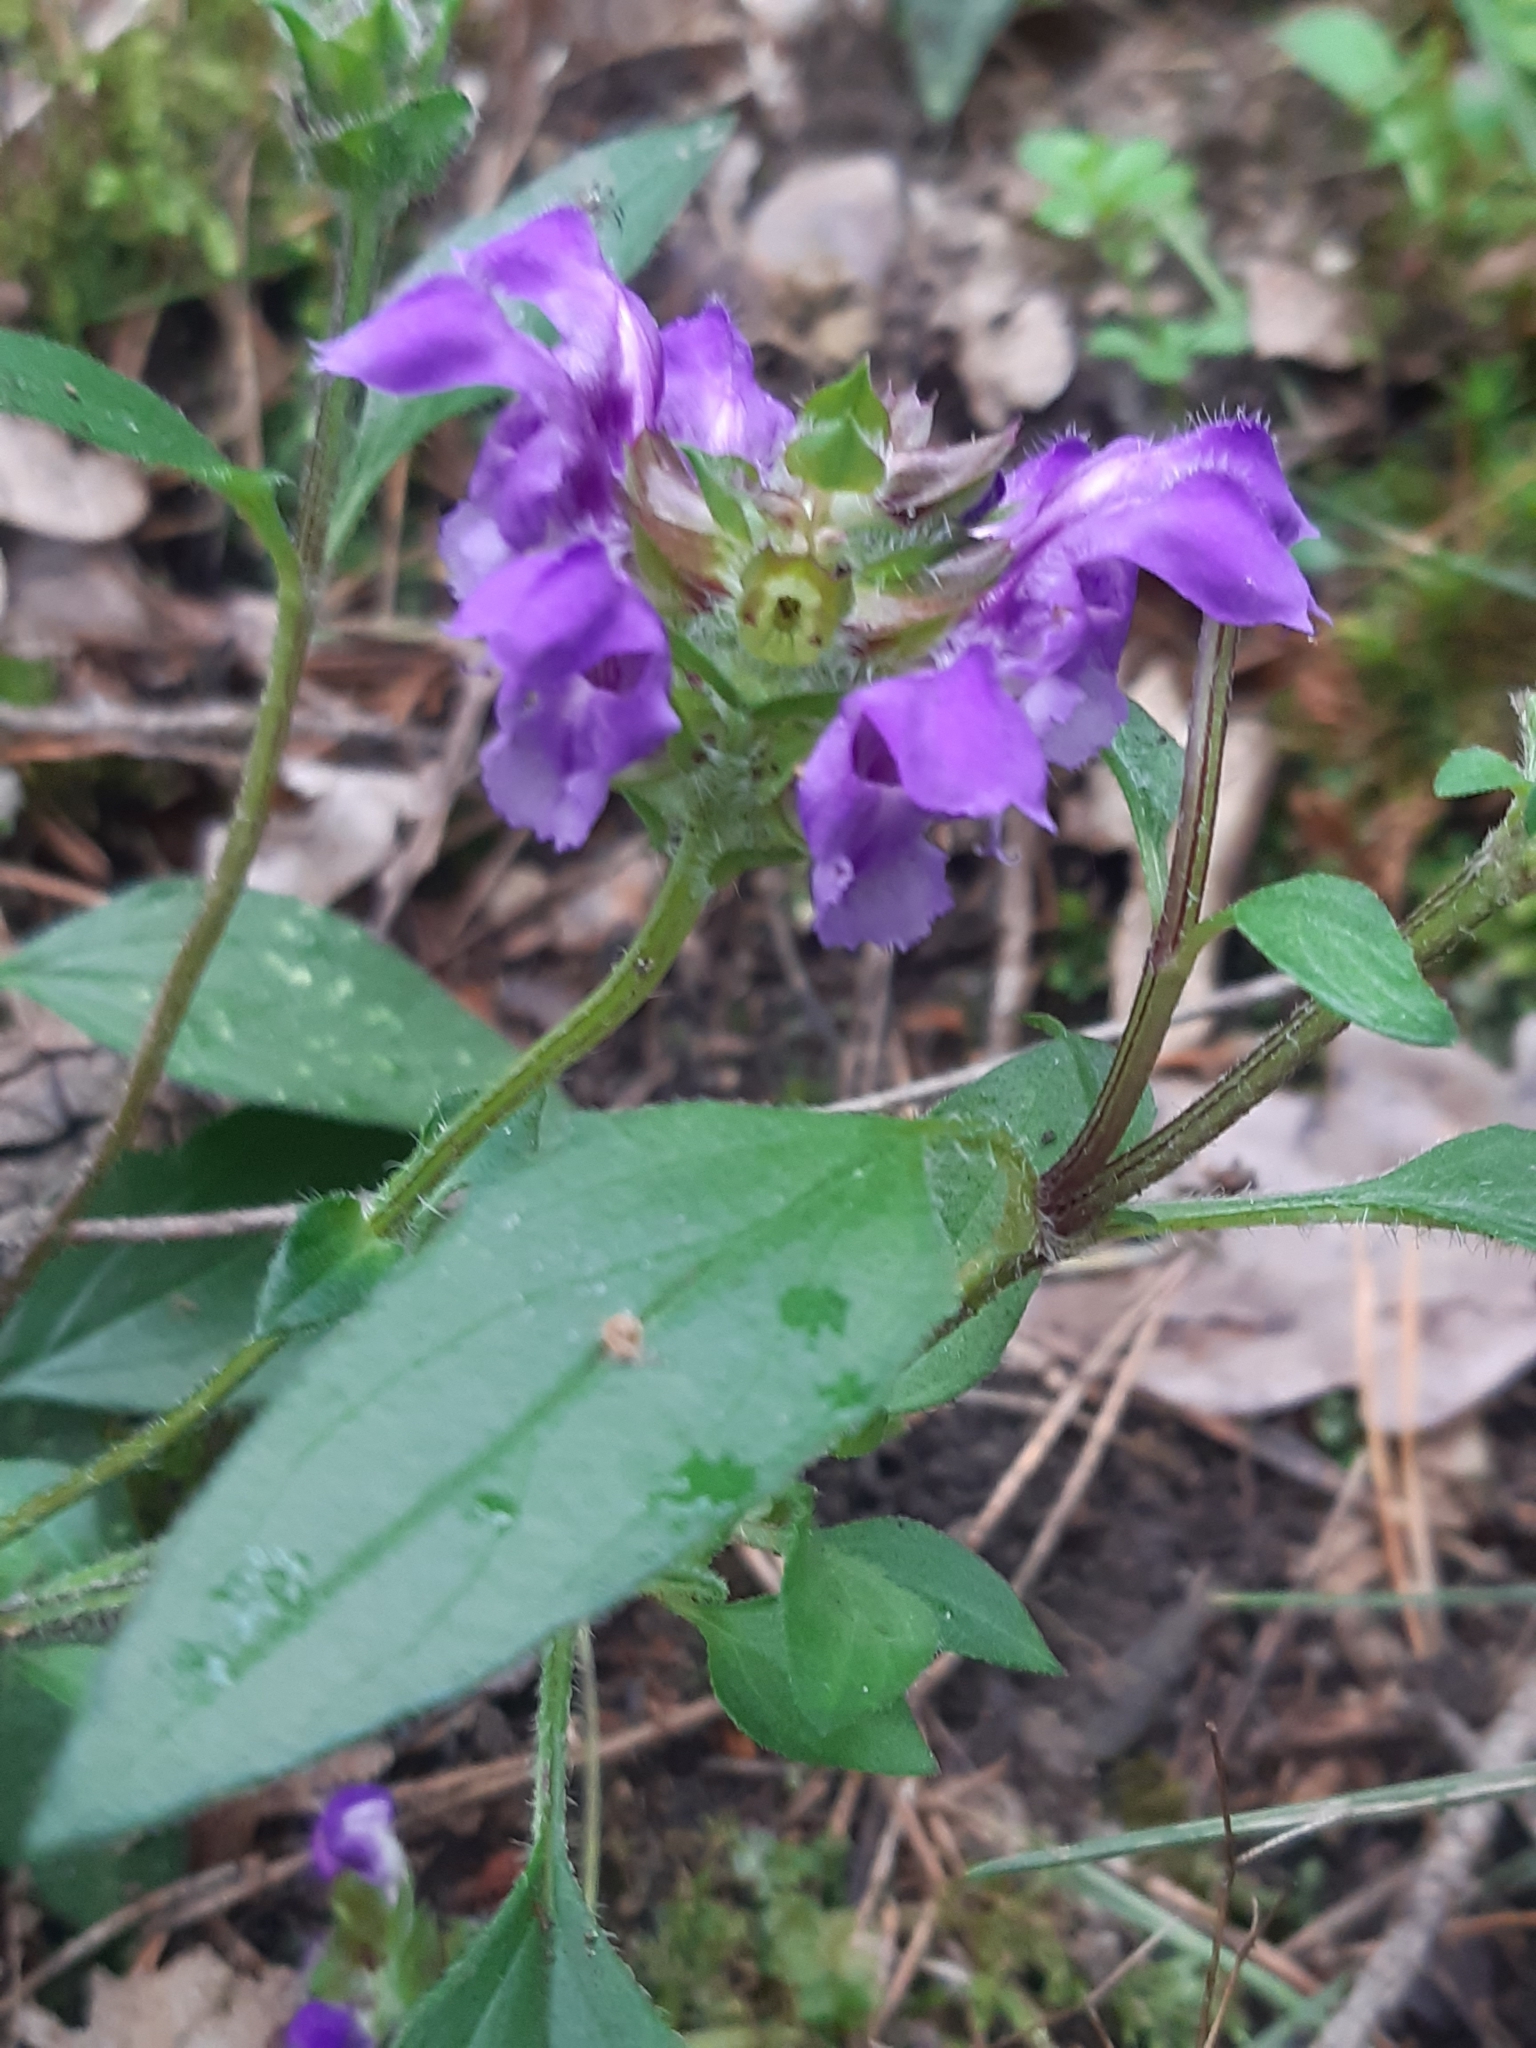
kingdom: Plantae
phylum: Tracheophyta
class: Magnoliopsida
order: Lamiales
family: Lamiaceae
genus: Prunella
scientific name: Prunella grandiflora
